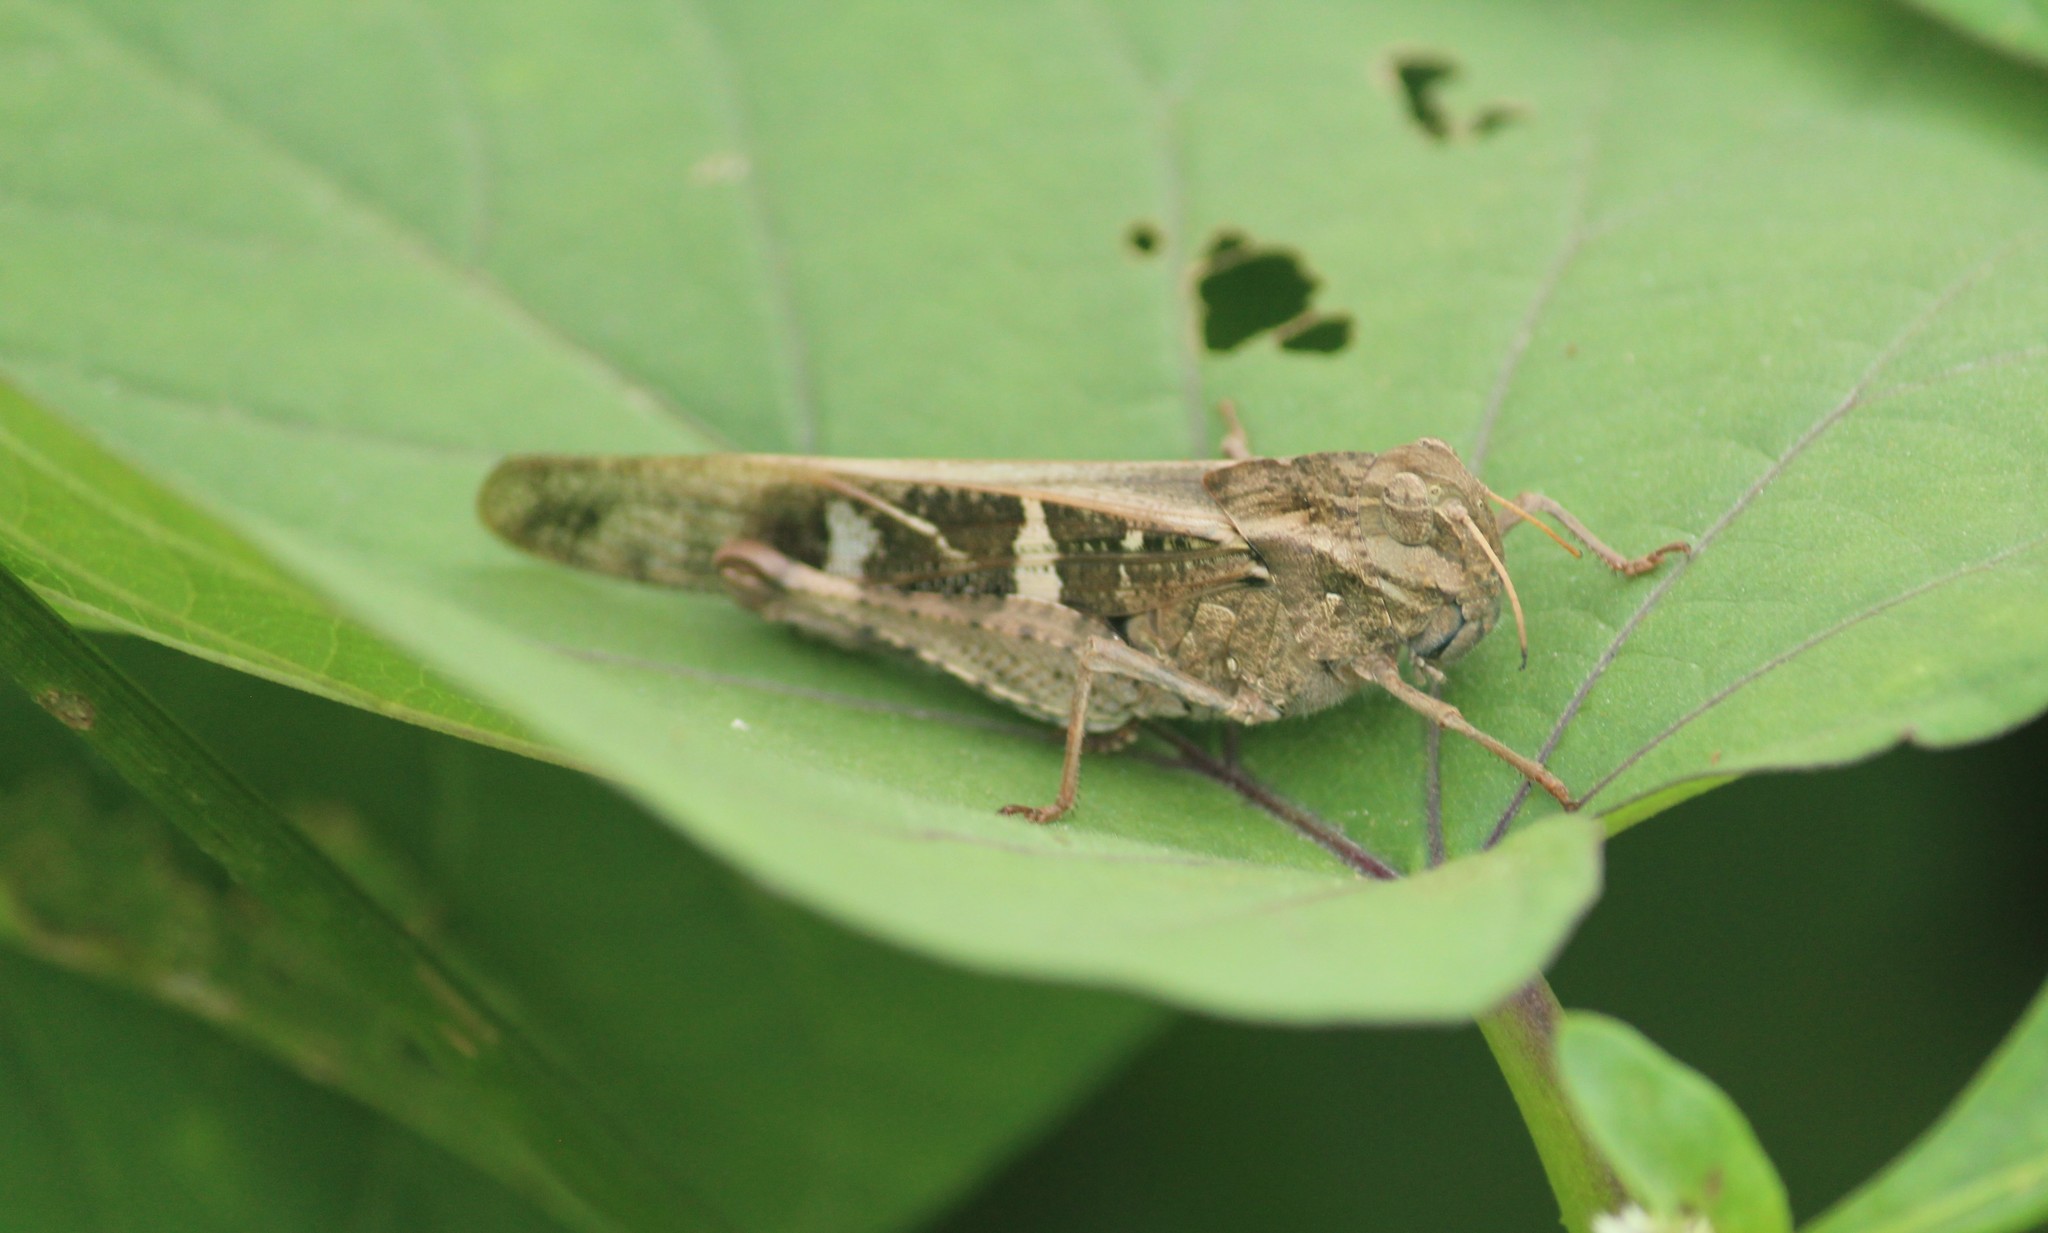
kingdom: Animalia
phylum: Arthropoda
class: Insecta
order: Orthoptera
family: Acrididae
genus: Gastrimargus
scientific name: Gastrimargus africanus
